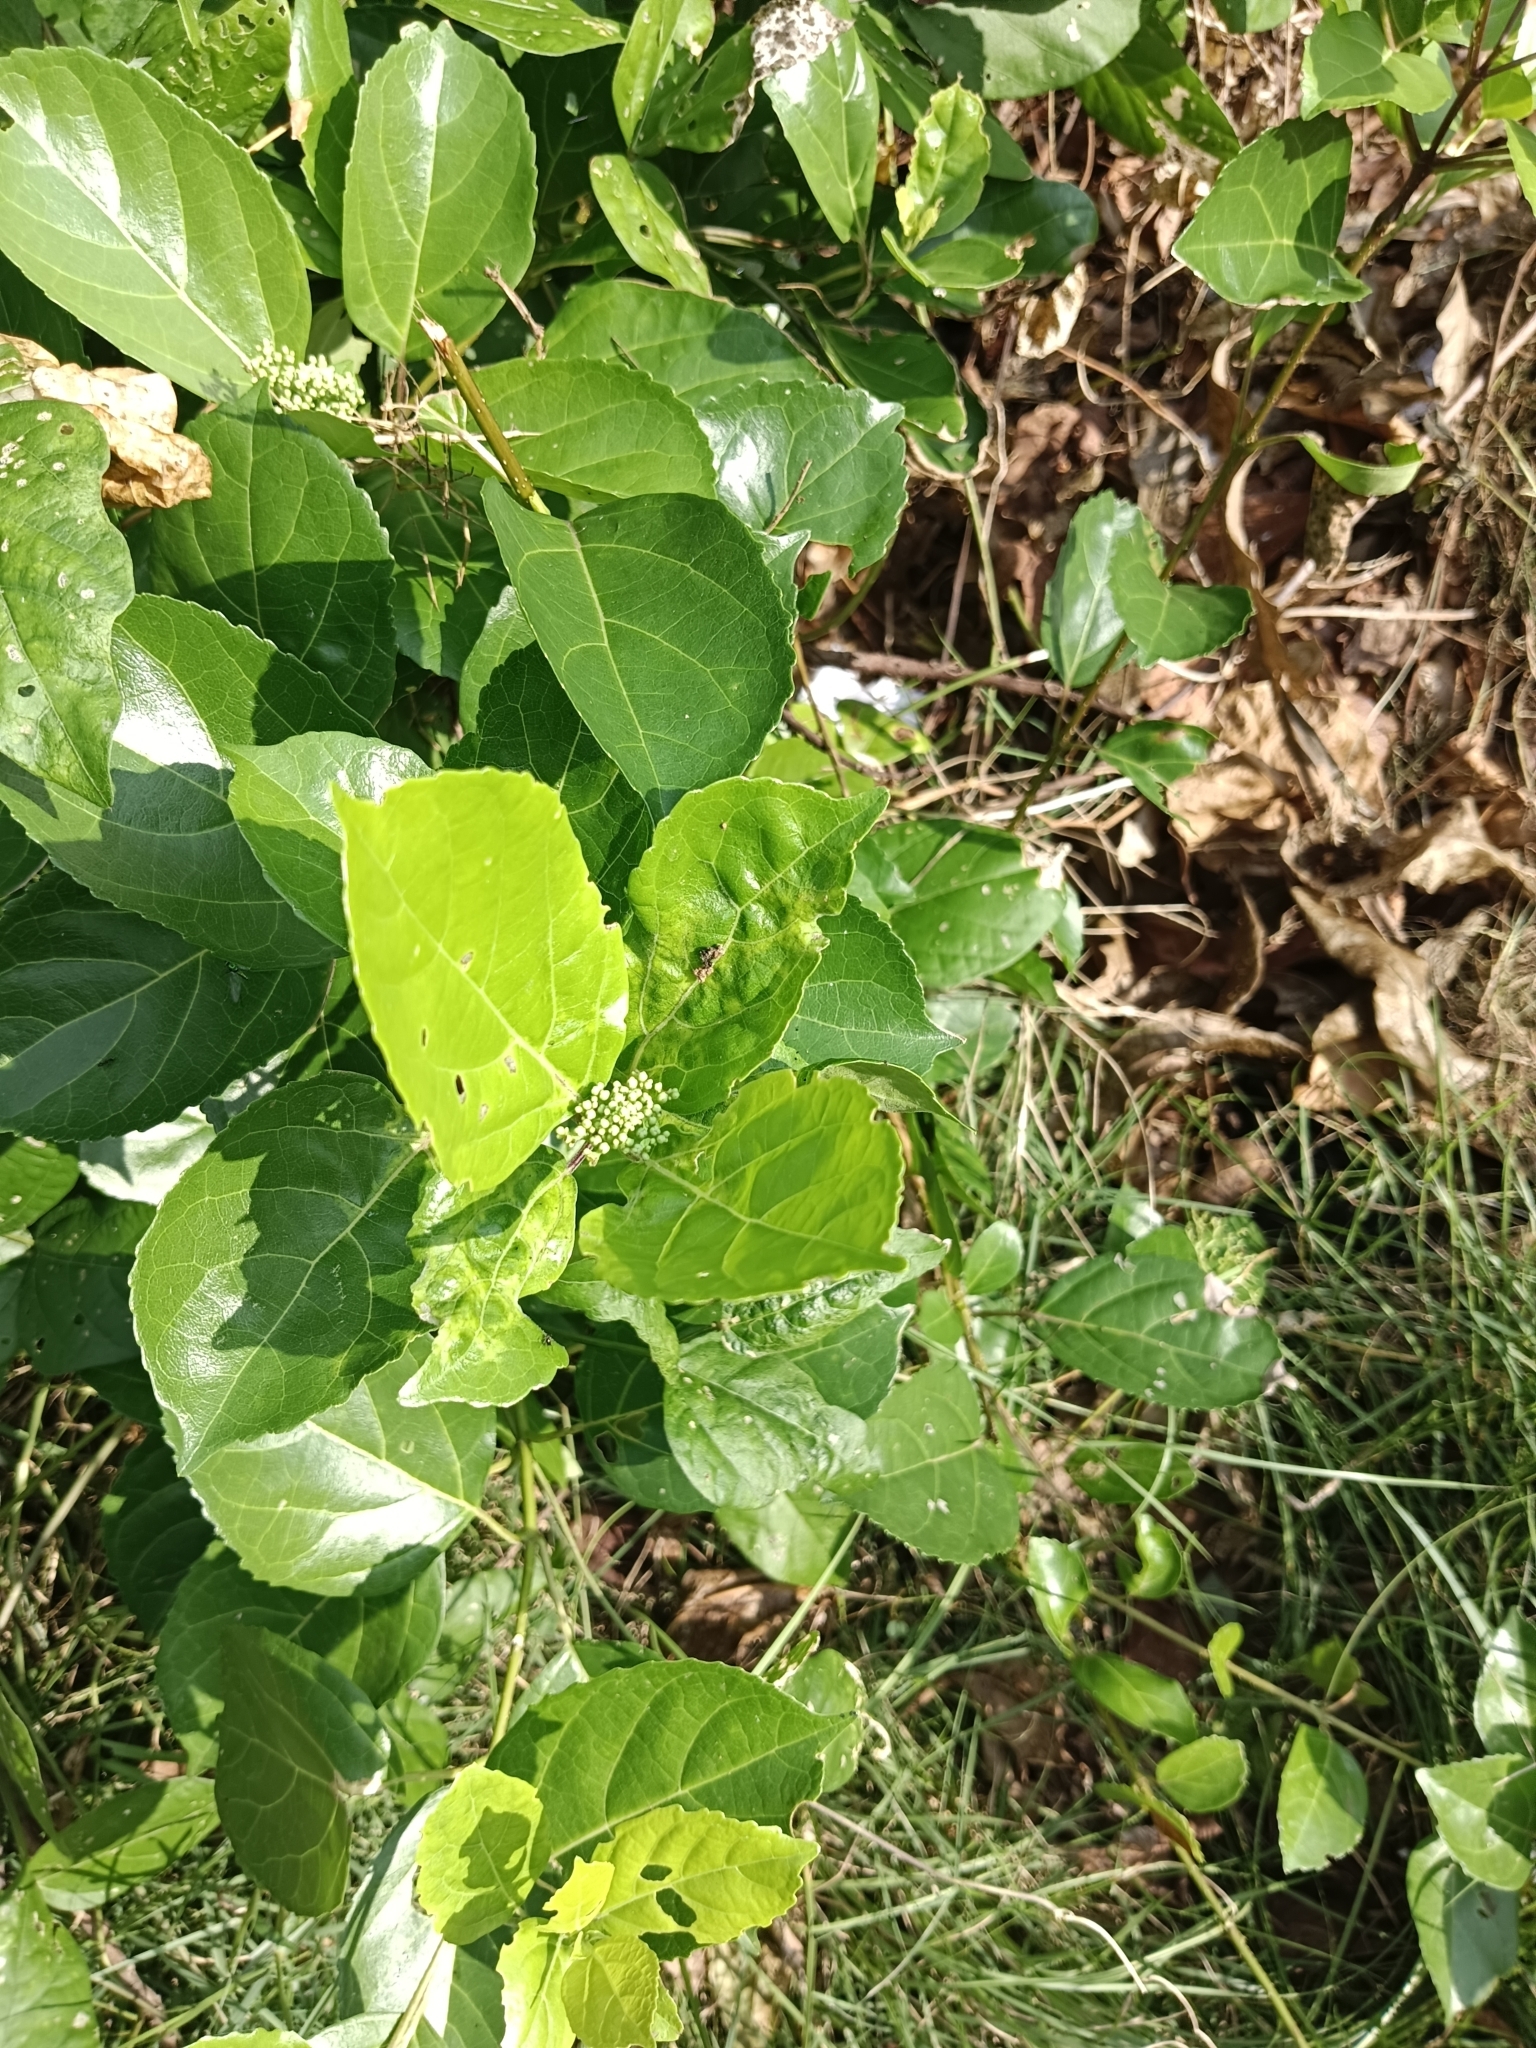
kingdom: Plantae
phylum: Tracheophyta
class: Magnoliopsida
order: Lamiales
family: Lamiaceae
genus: Premna
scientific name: Premna serratifolia
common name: Bastard guelder
